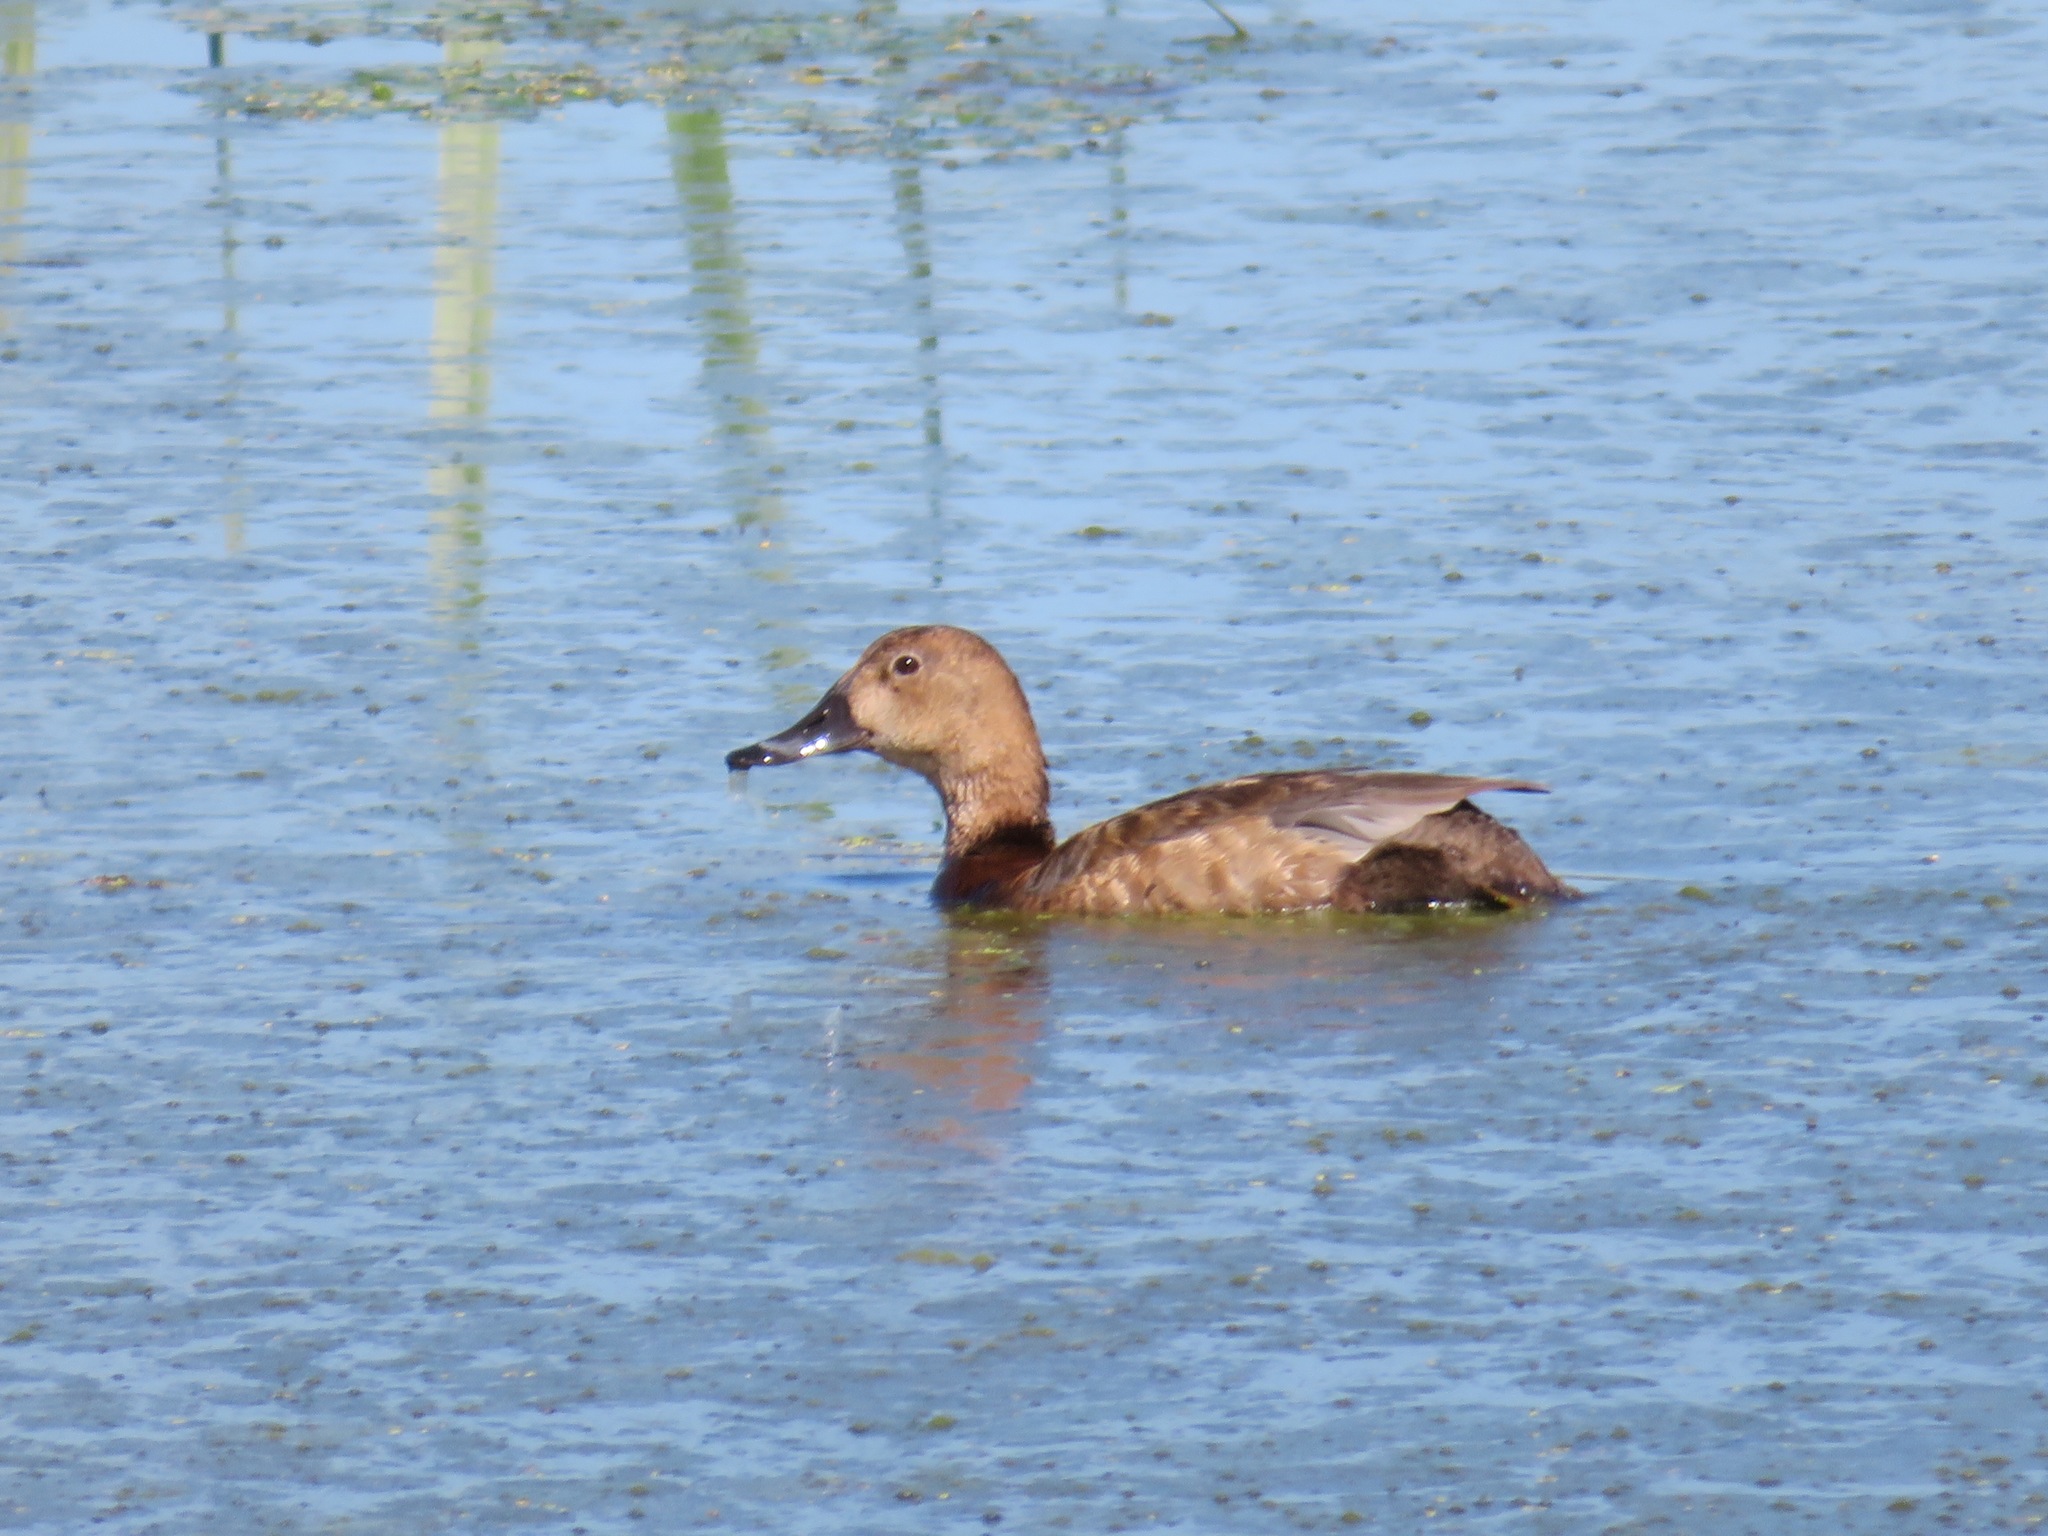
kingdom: Animalia
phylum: Chordata
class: Aves
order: Anseriformes
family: Anatidae
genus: Aythya
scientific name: Aythya ferina
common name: Common pochard
